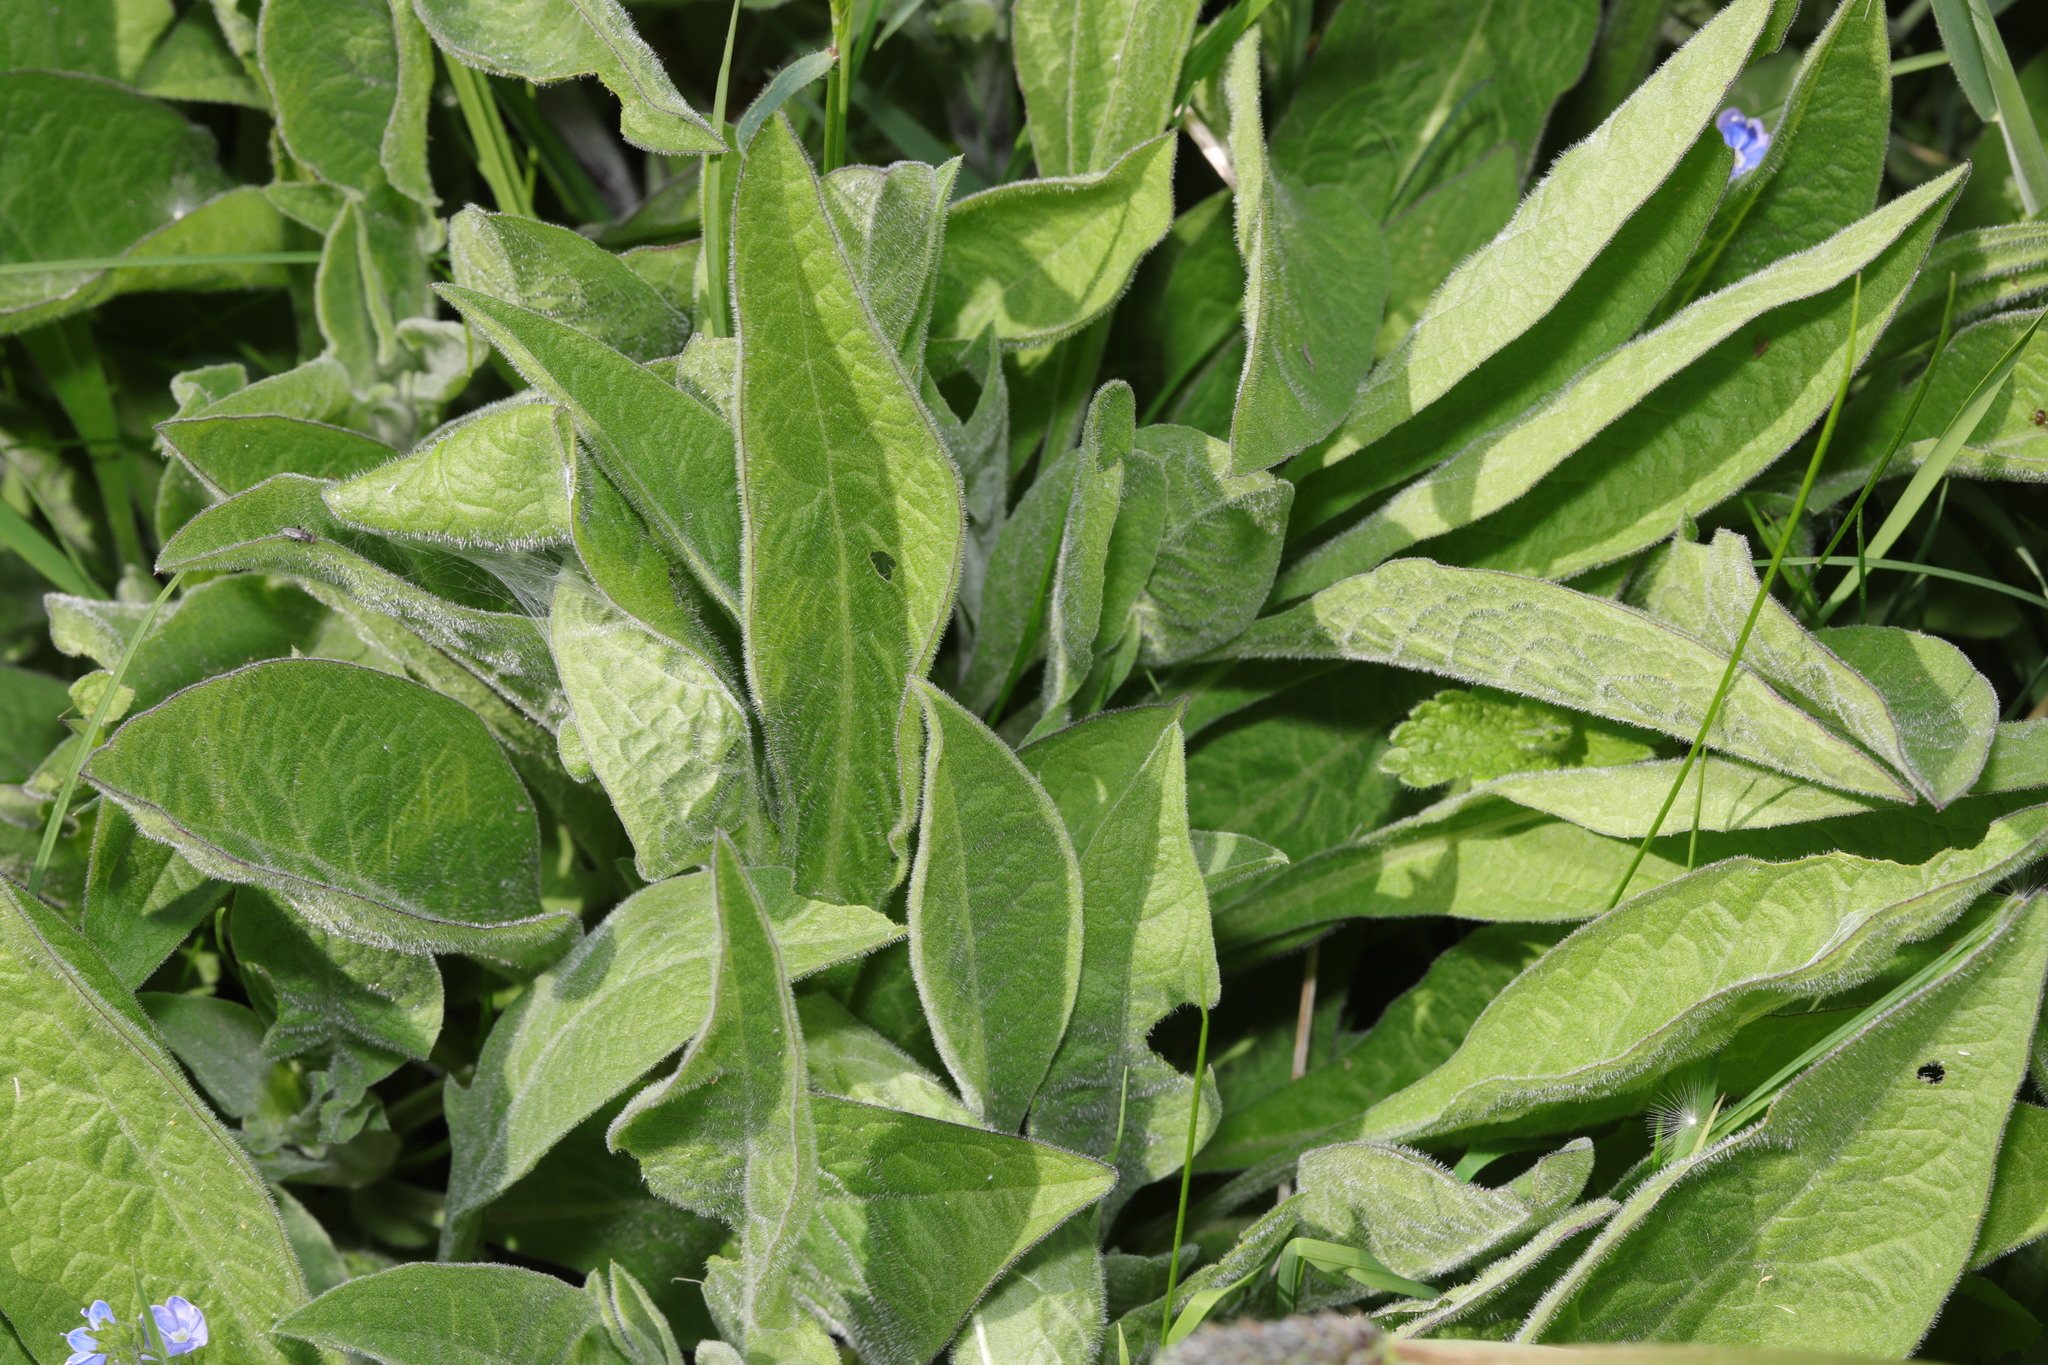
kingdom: Plantae
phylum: Tracheophyta
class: Magnoliopsida
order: Asterales
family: Asteraceae
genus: Centaurea
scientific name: Centaurea nigra
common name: Lesser knapweed
